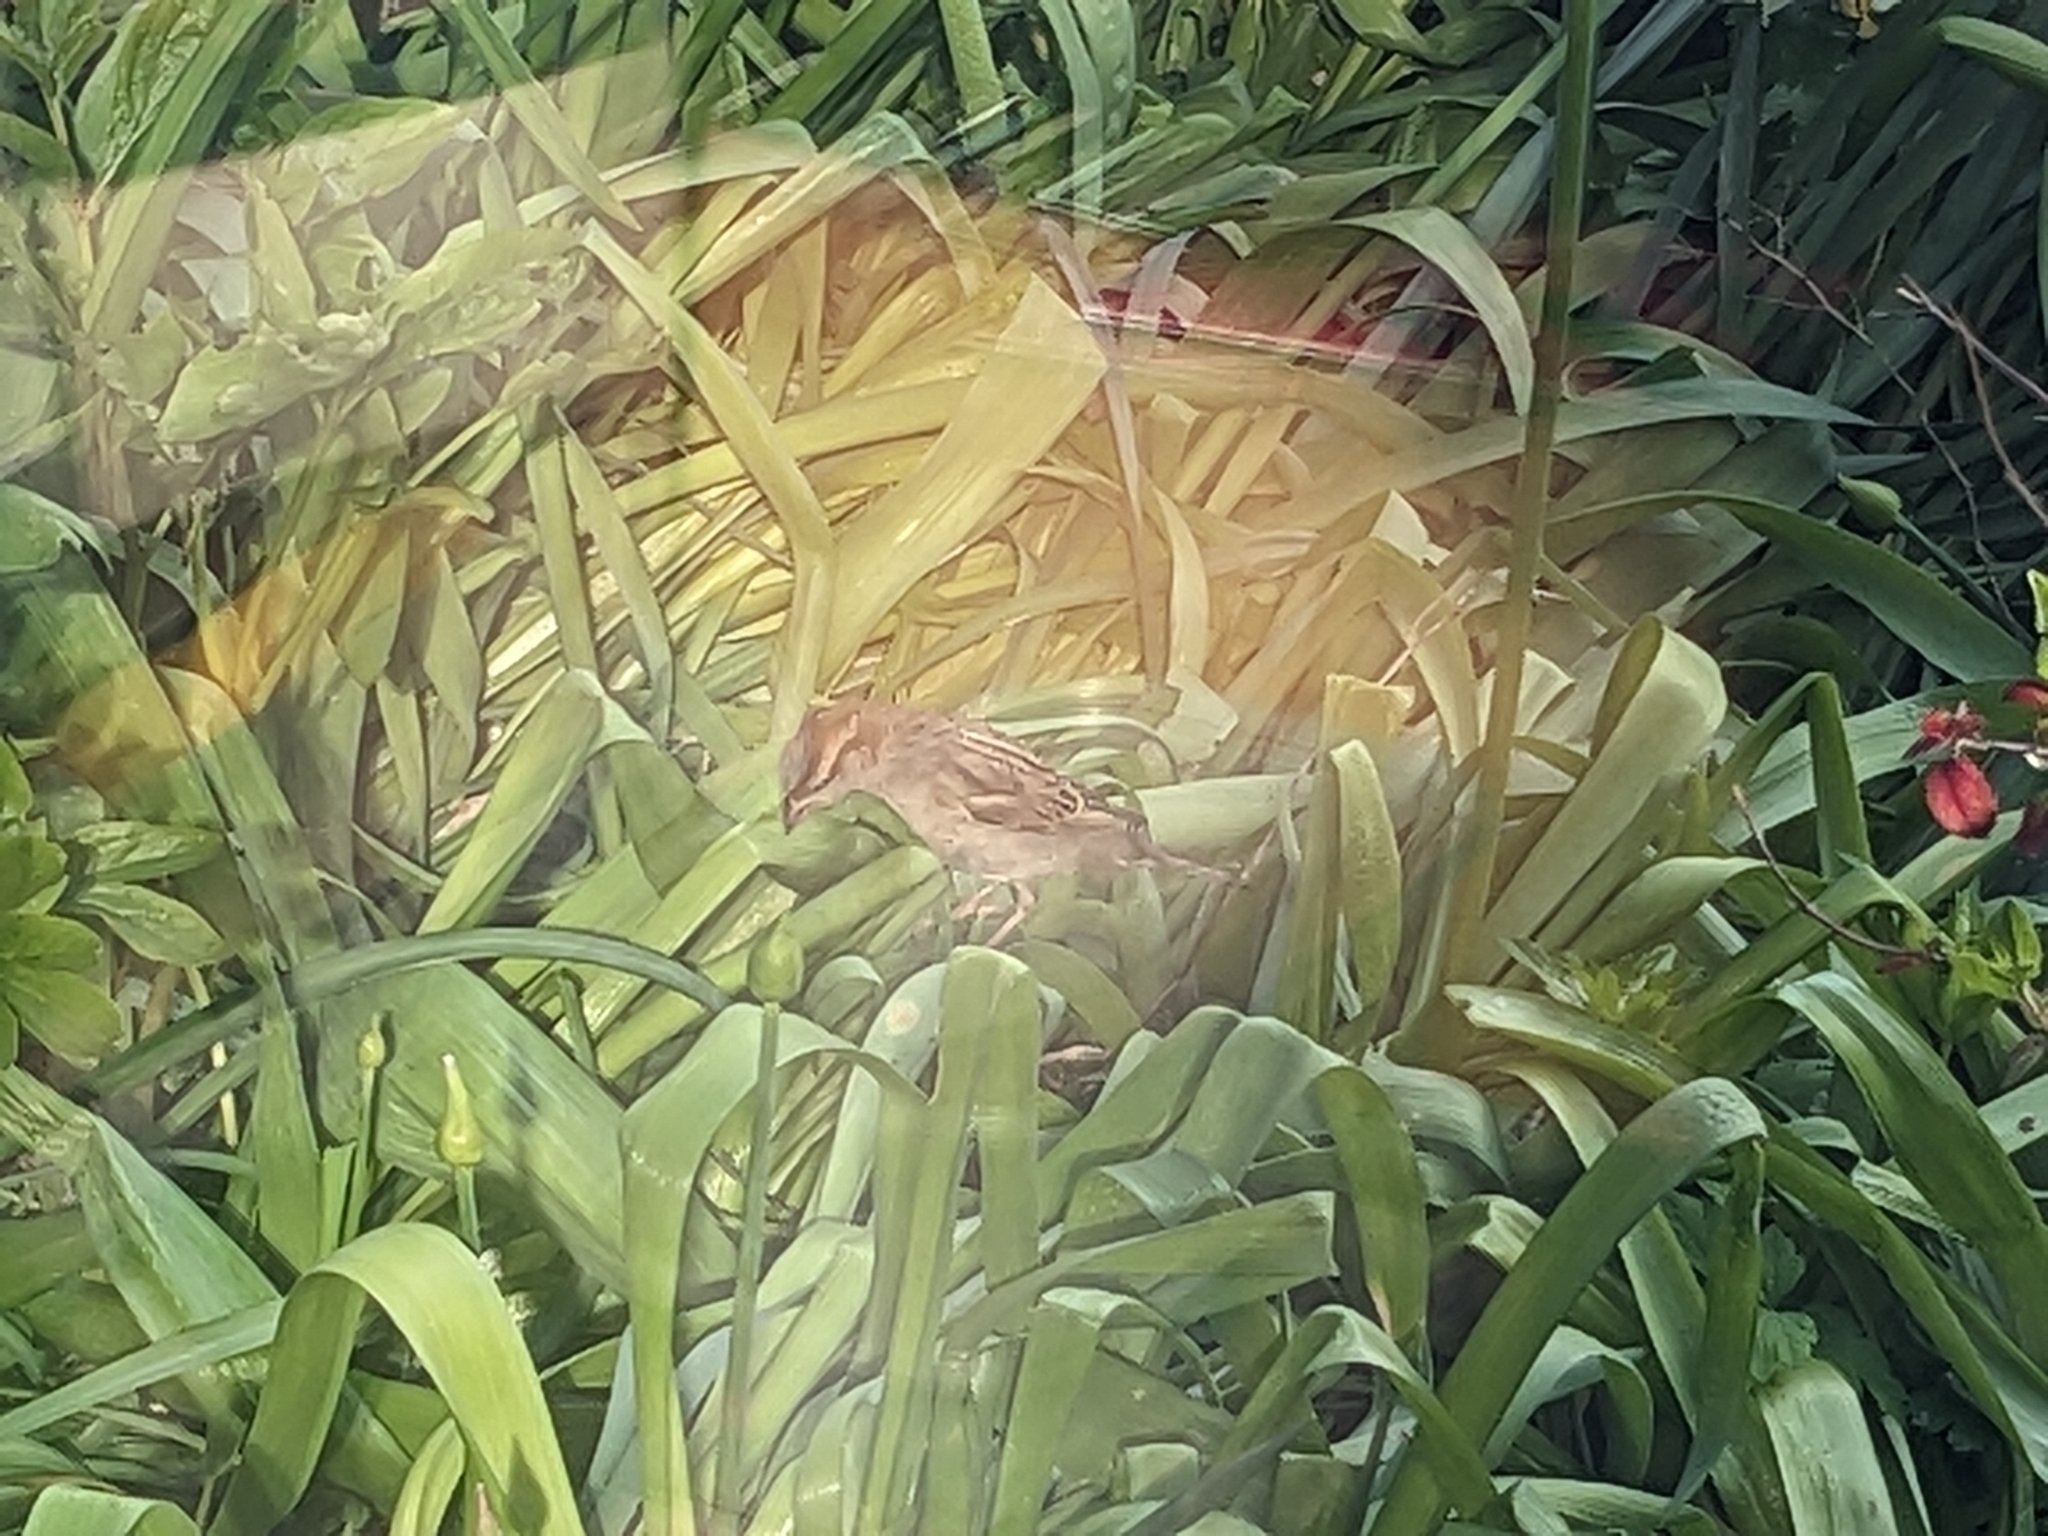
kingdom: Animalia
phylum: Chordata
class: Aves
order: Passeriformes
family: Passeridae
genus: Passer
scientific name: Passer domesticus
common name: House sparrow
